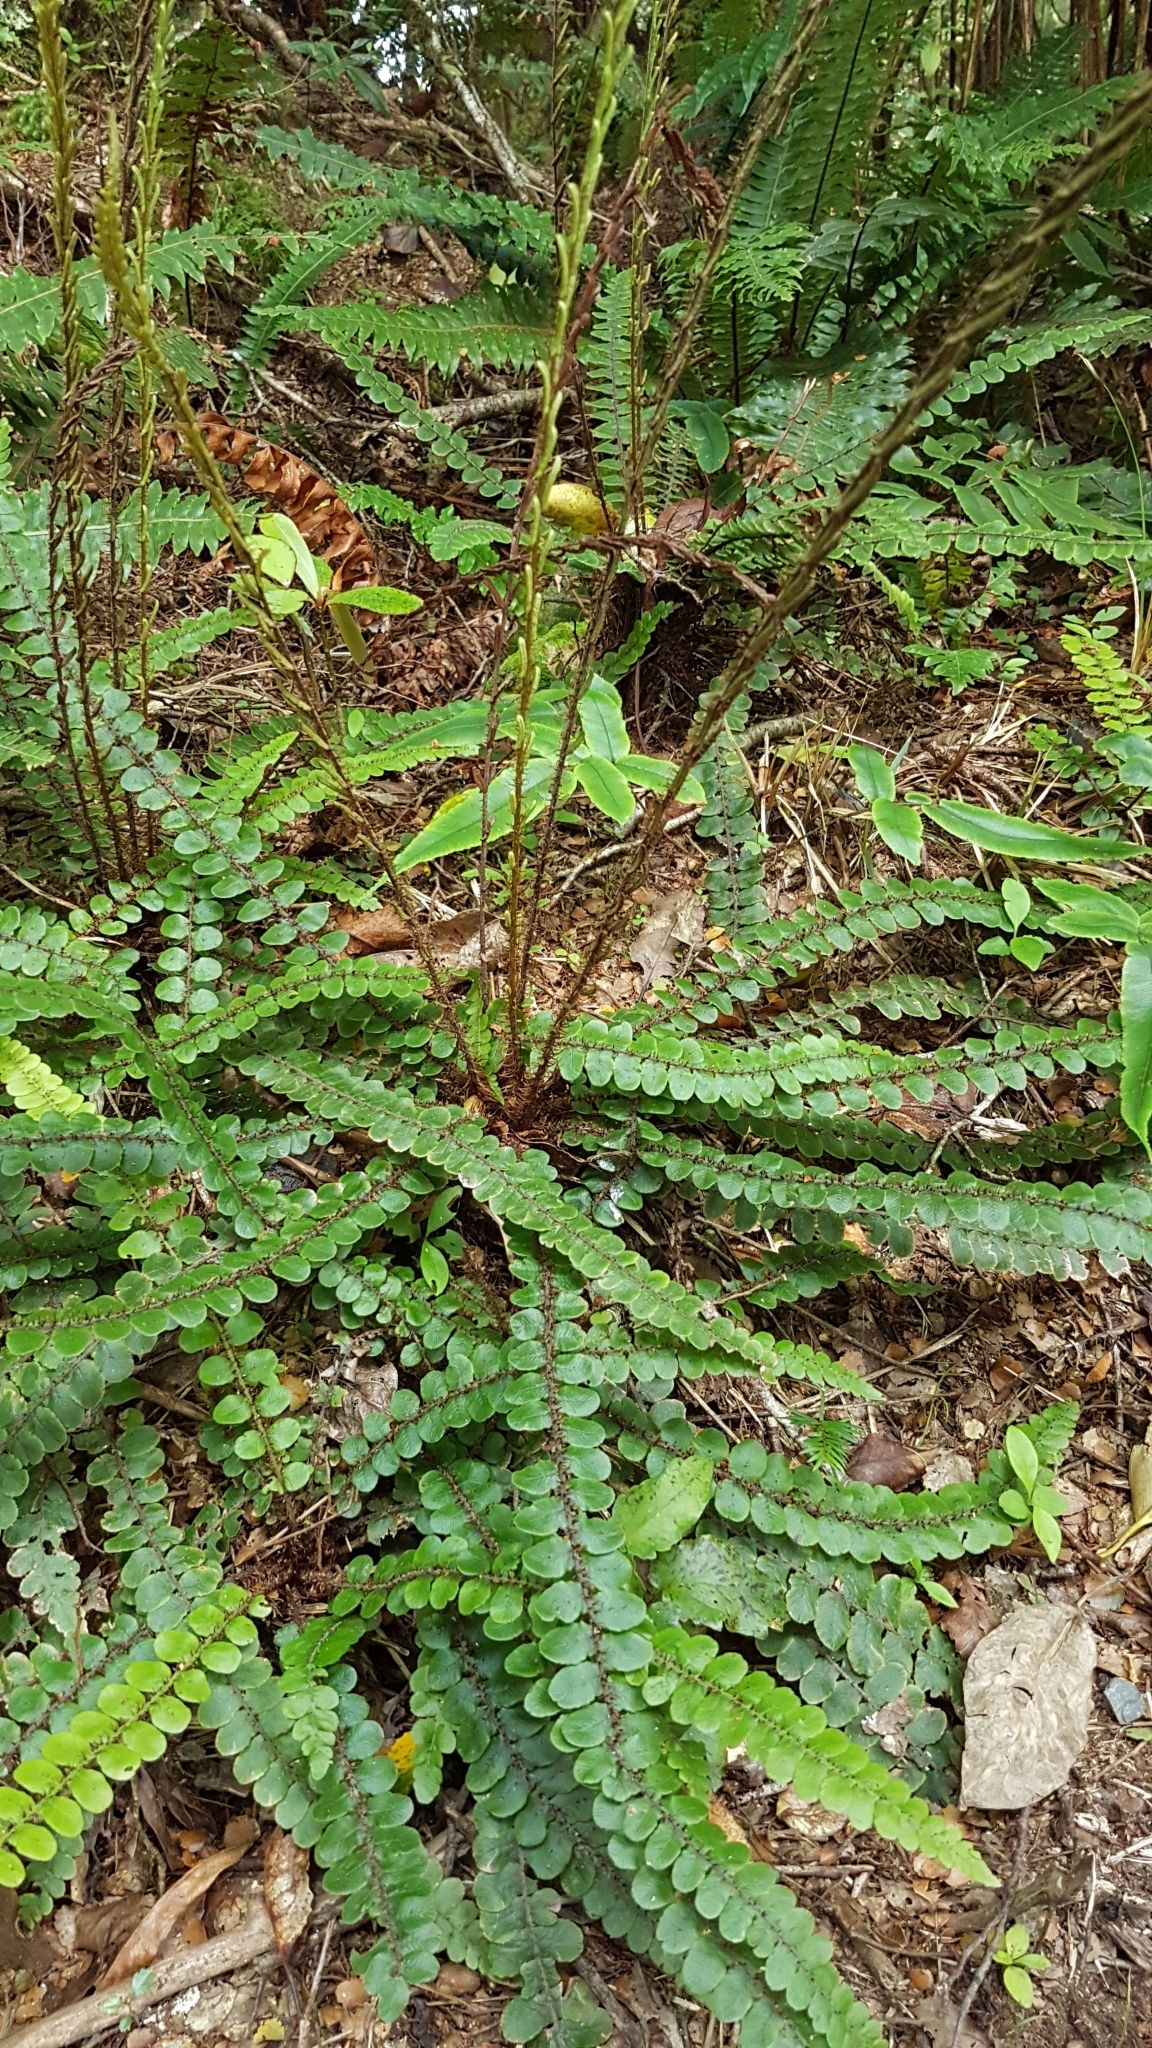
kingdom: Plantae
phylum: Tracheophyta
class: Polypodiopsida
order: Polypodiales
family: Blechnaceae
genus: Cranfillia
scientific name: Cranfillia fluviatilis
